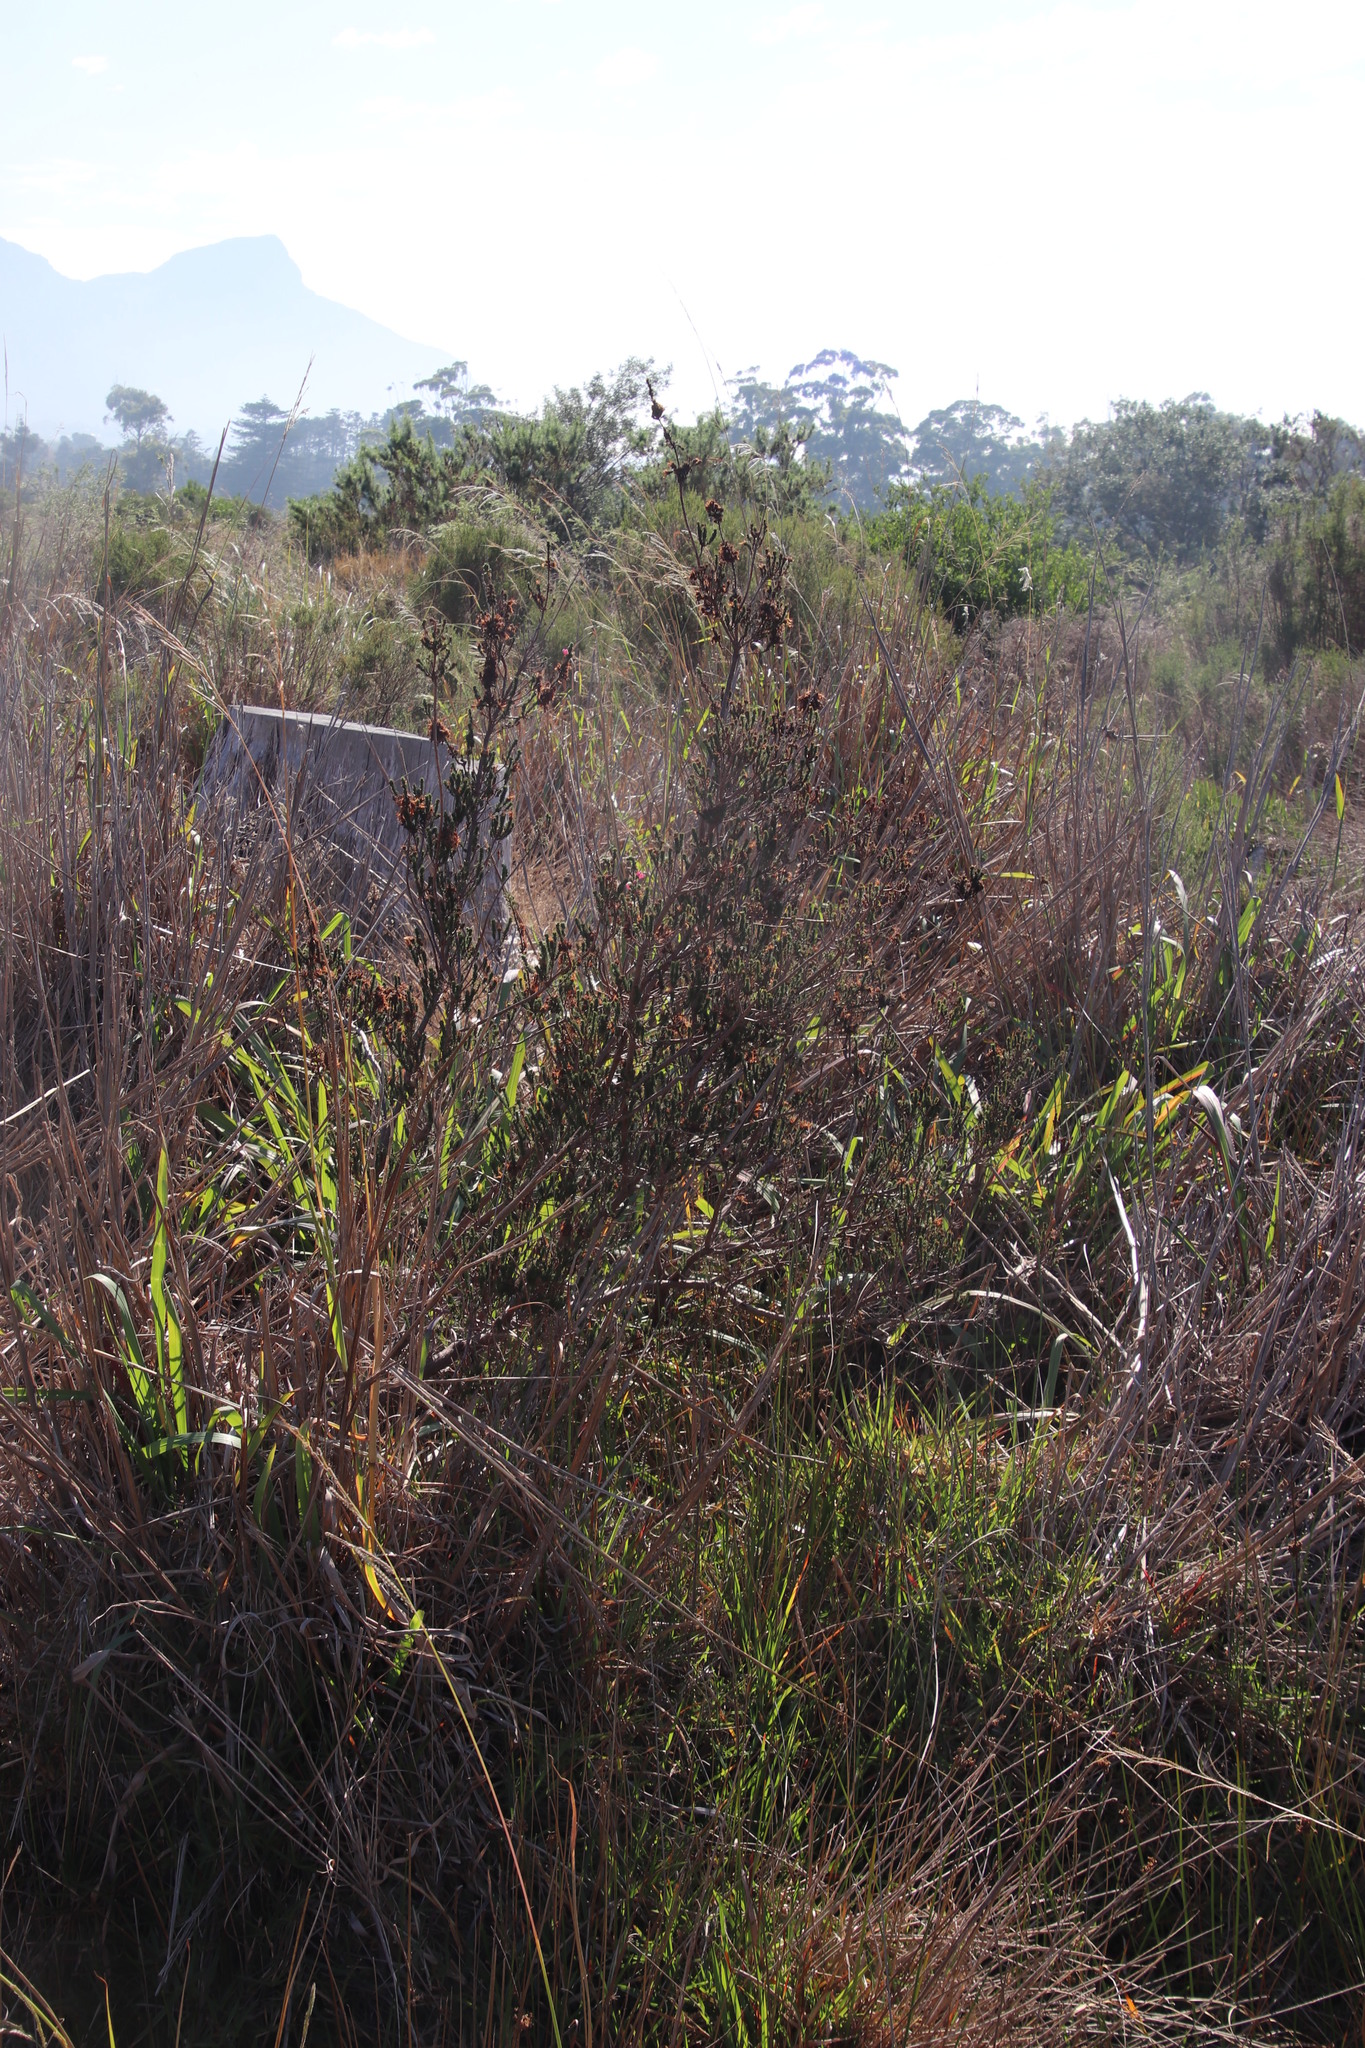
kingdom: Plantae
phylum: Tracheophyta
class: Magnoliopsida
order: Ericales
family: Ericaceae
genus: Erica
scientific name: Erica verticillata
